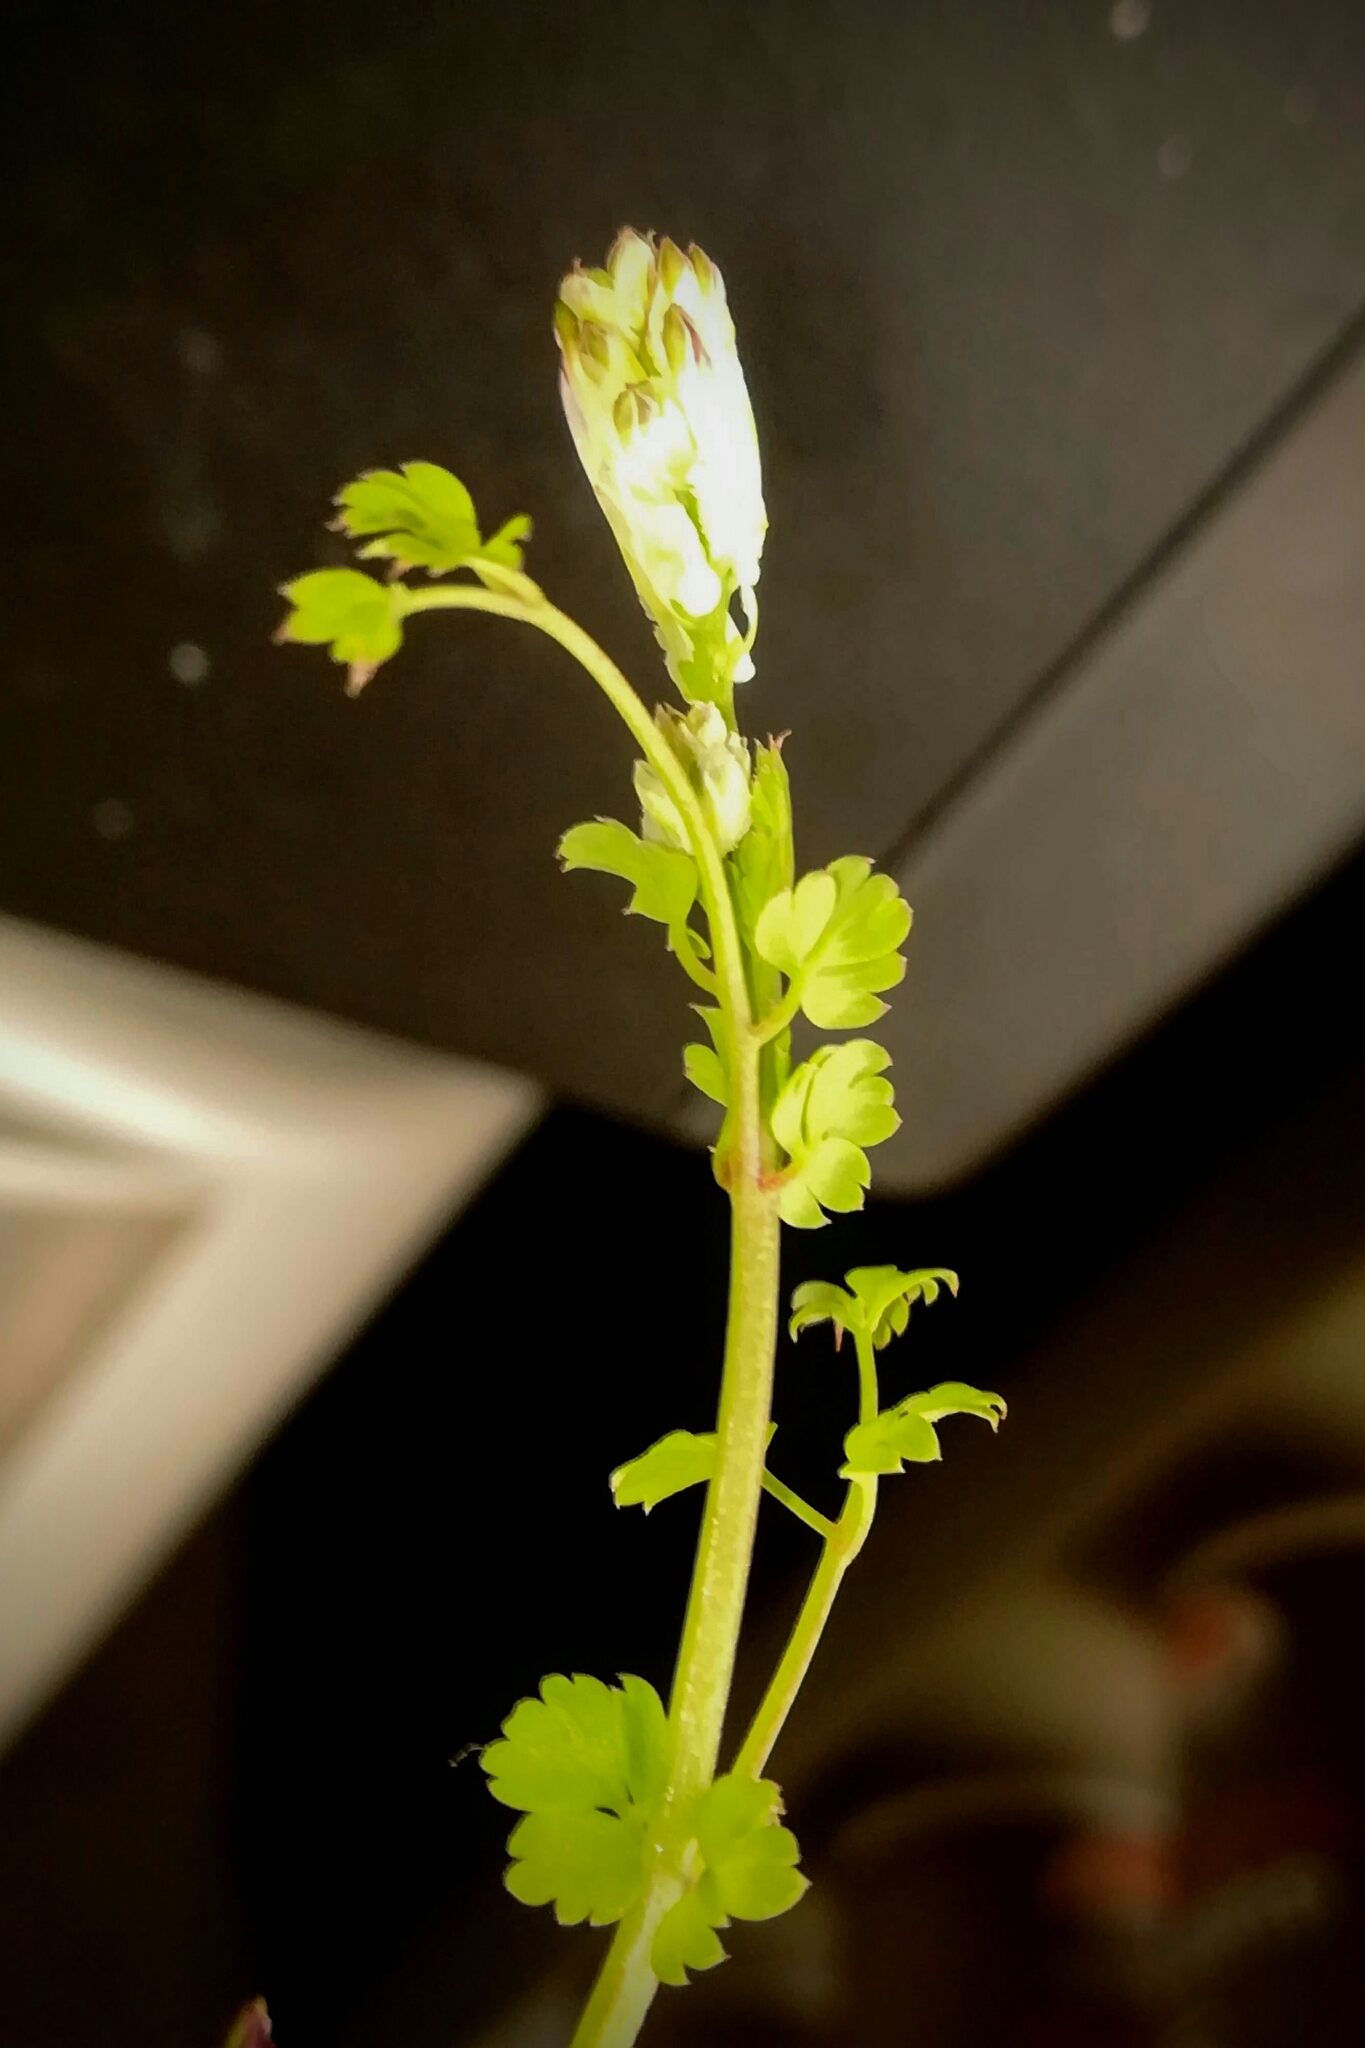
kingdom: Plantae
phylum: Tracheophyta
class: Magnoliopsida
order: Ranunculales
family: Papaveraceae
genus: Fumaria
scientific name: Fumaria capreolata
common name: White ramping-fumitory
